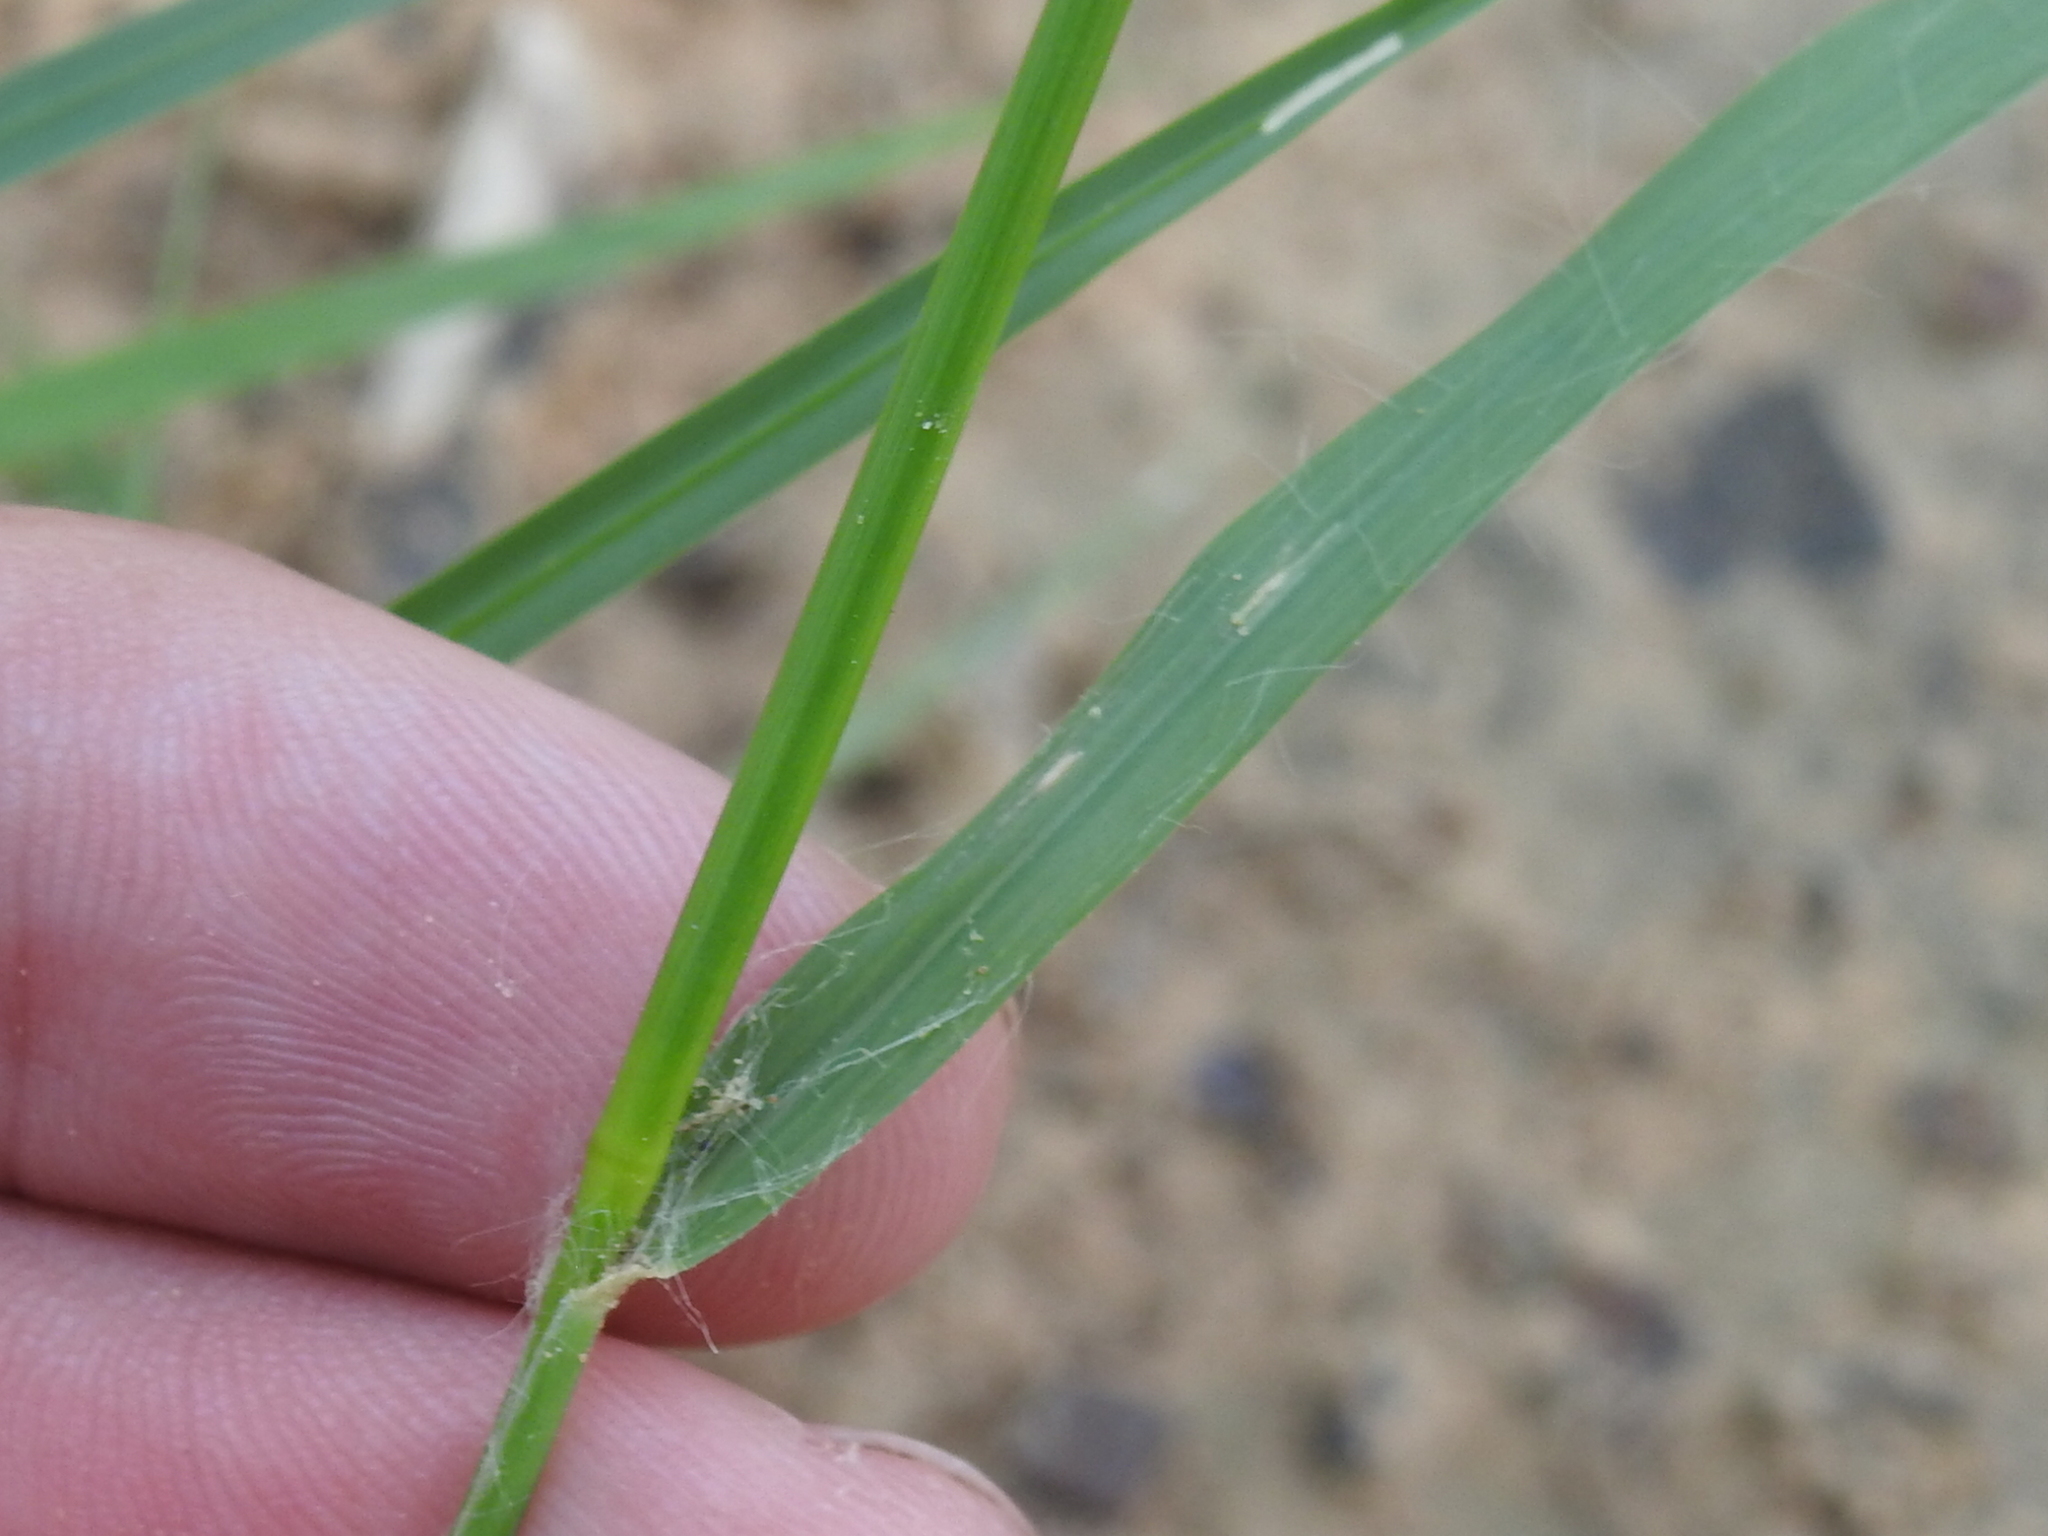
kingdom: Plantae
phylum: Tracheophyta
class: Liliopsida
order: Poales
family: Poaceae
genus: Eragrostis
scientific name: Eragrostis trichodes
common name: Sand love grass
